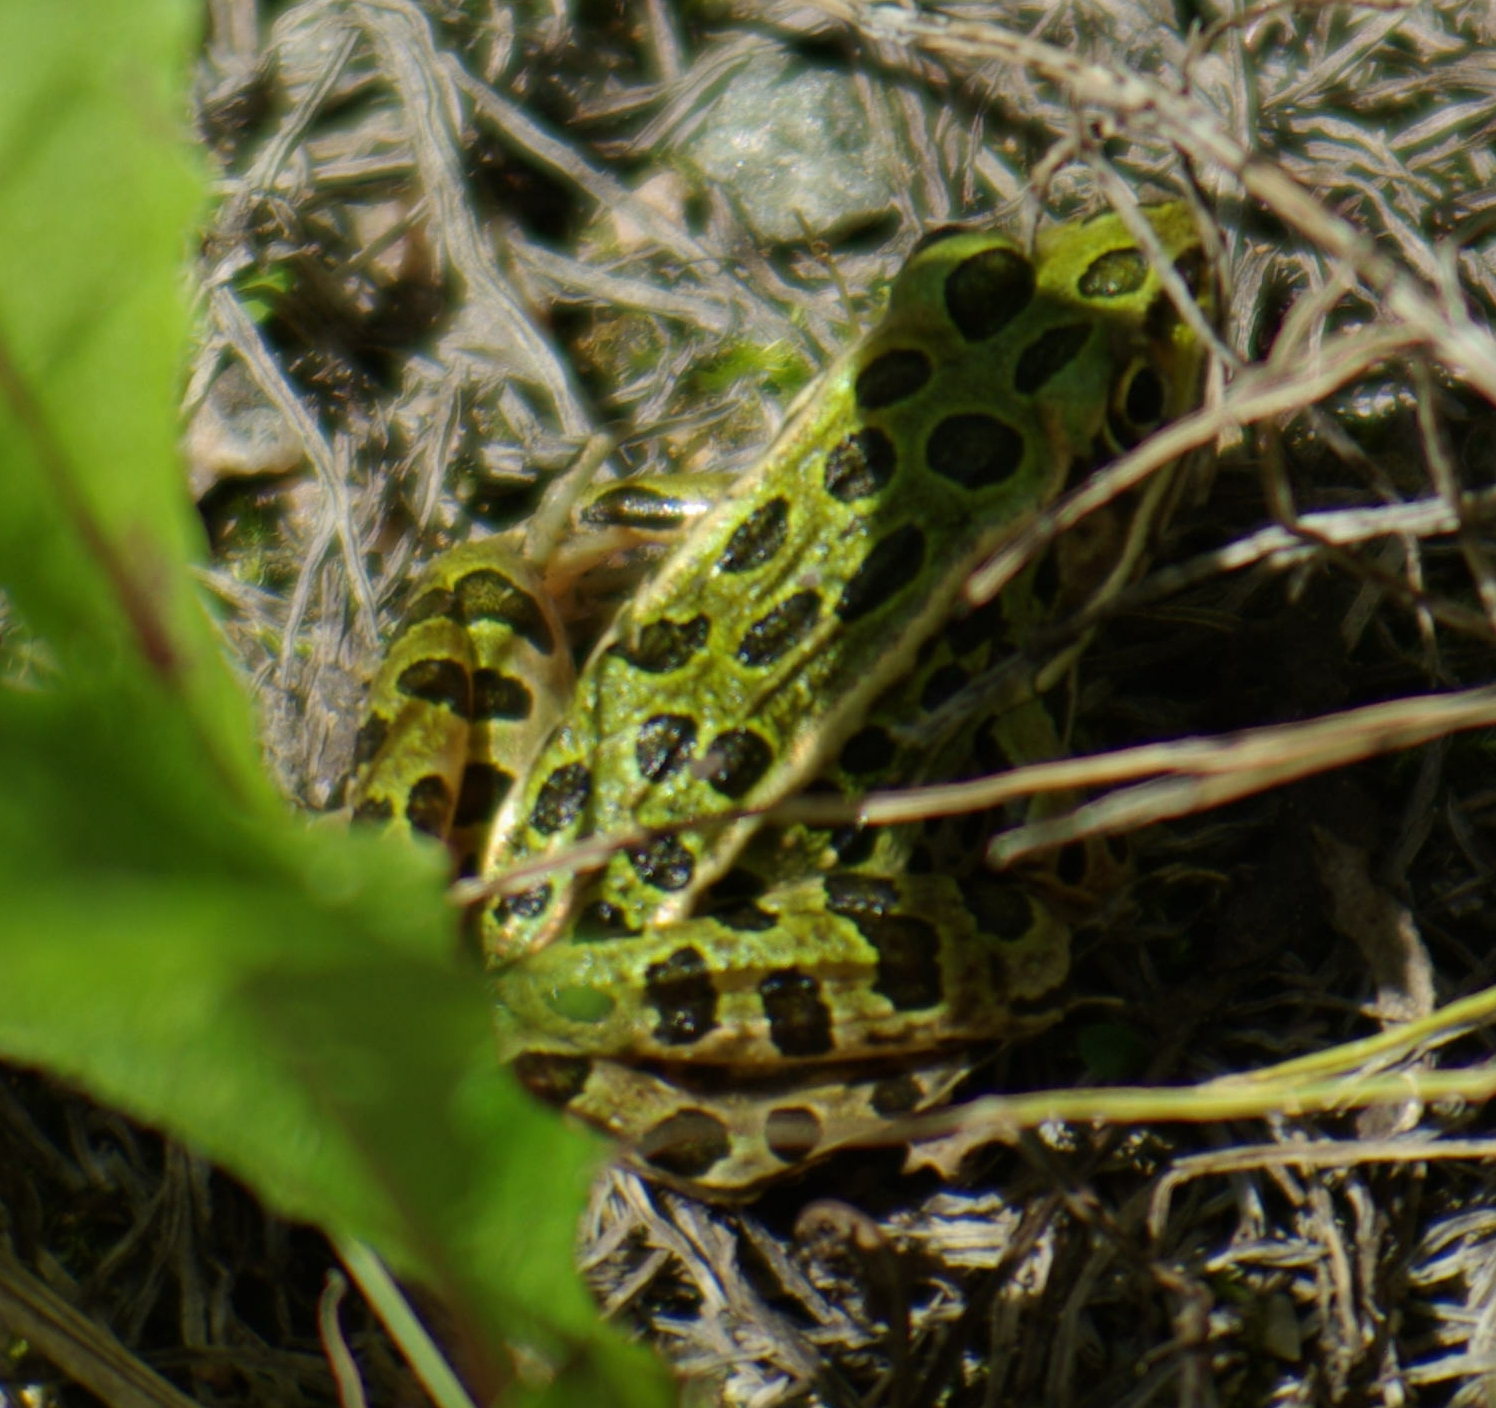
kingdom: Animalia
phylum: Chordata
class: Amphibia
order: Anura
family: Ranidae
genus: Lithobates
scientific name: Lithobates pipiens
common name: Northern leopard frog
